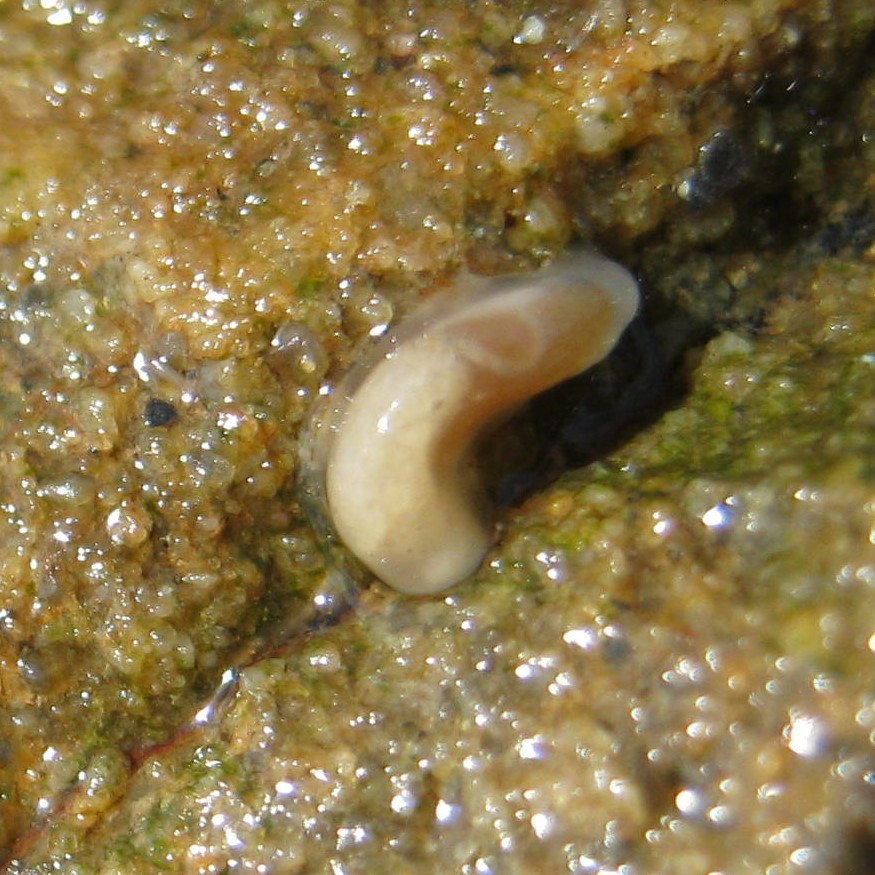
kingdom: Animalia
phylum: Mollusca
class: Gastropoda
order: Ellobiida
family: Otinidae
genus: Smeagol
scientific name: Smeagol climoi
